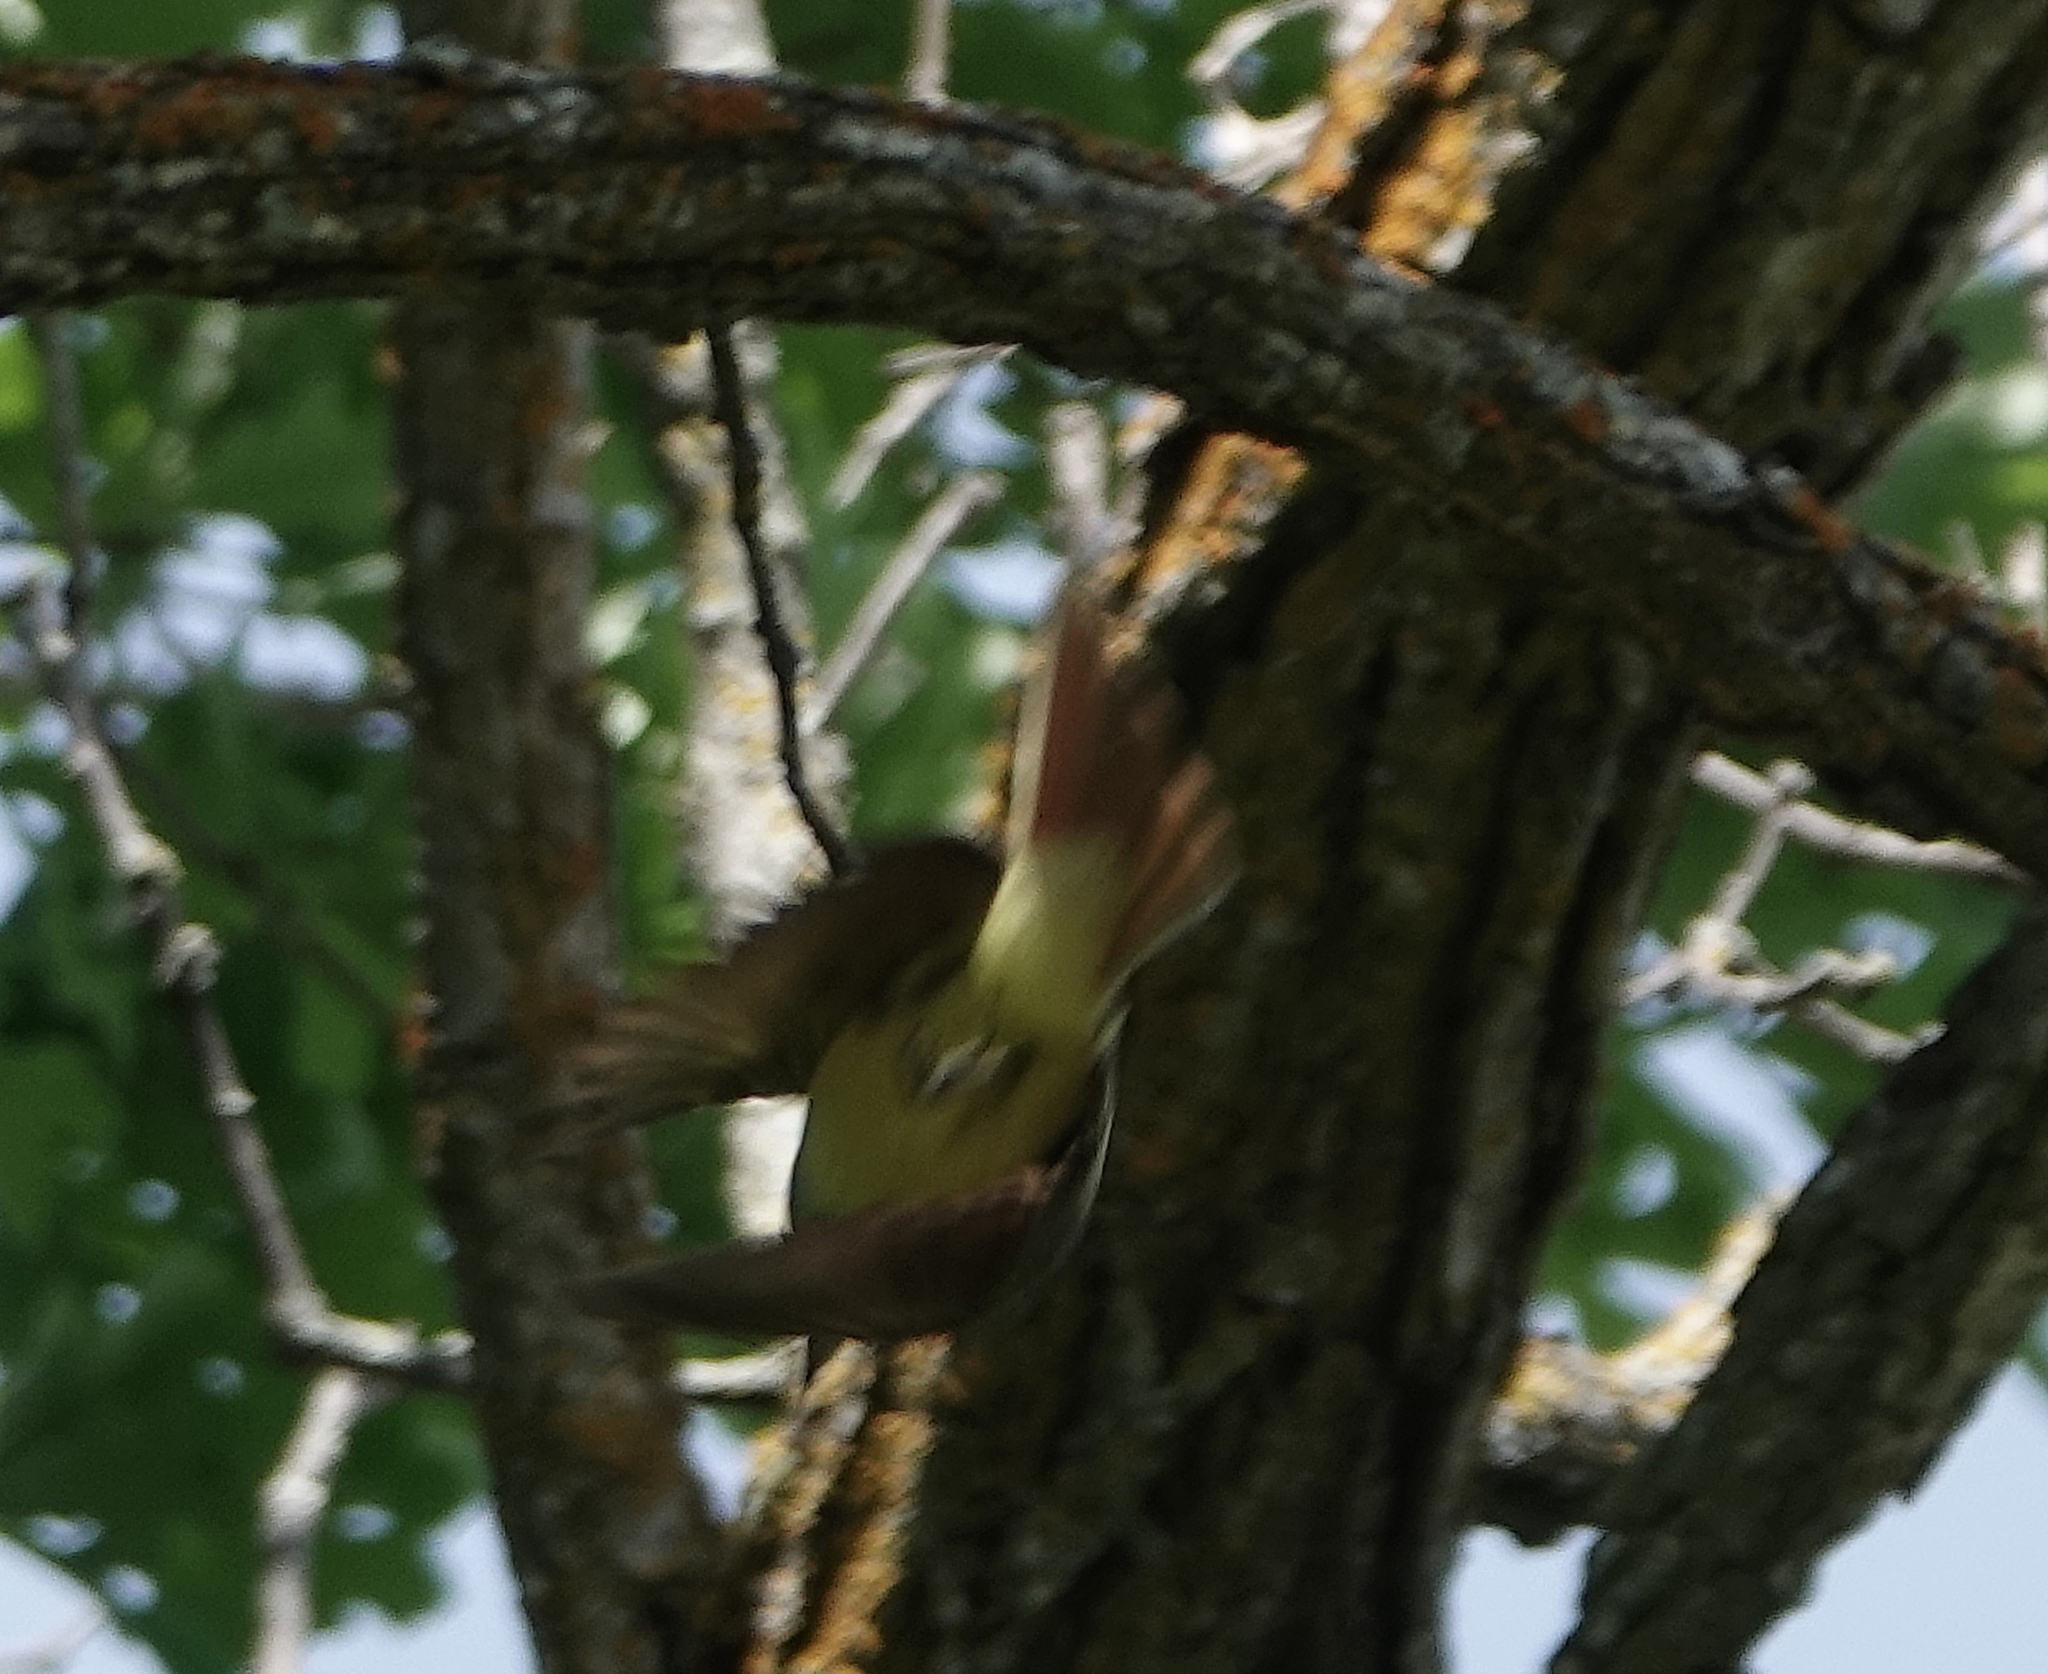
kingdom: Animalia
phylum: Chordata
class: Aves
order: Passeriformes
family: Tyrannidae
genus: Myiarchus
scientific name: Myiarchus crinitus
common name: Great crested flycatcher
